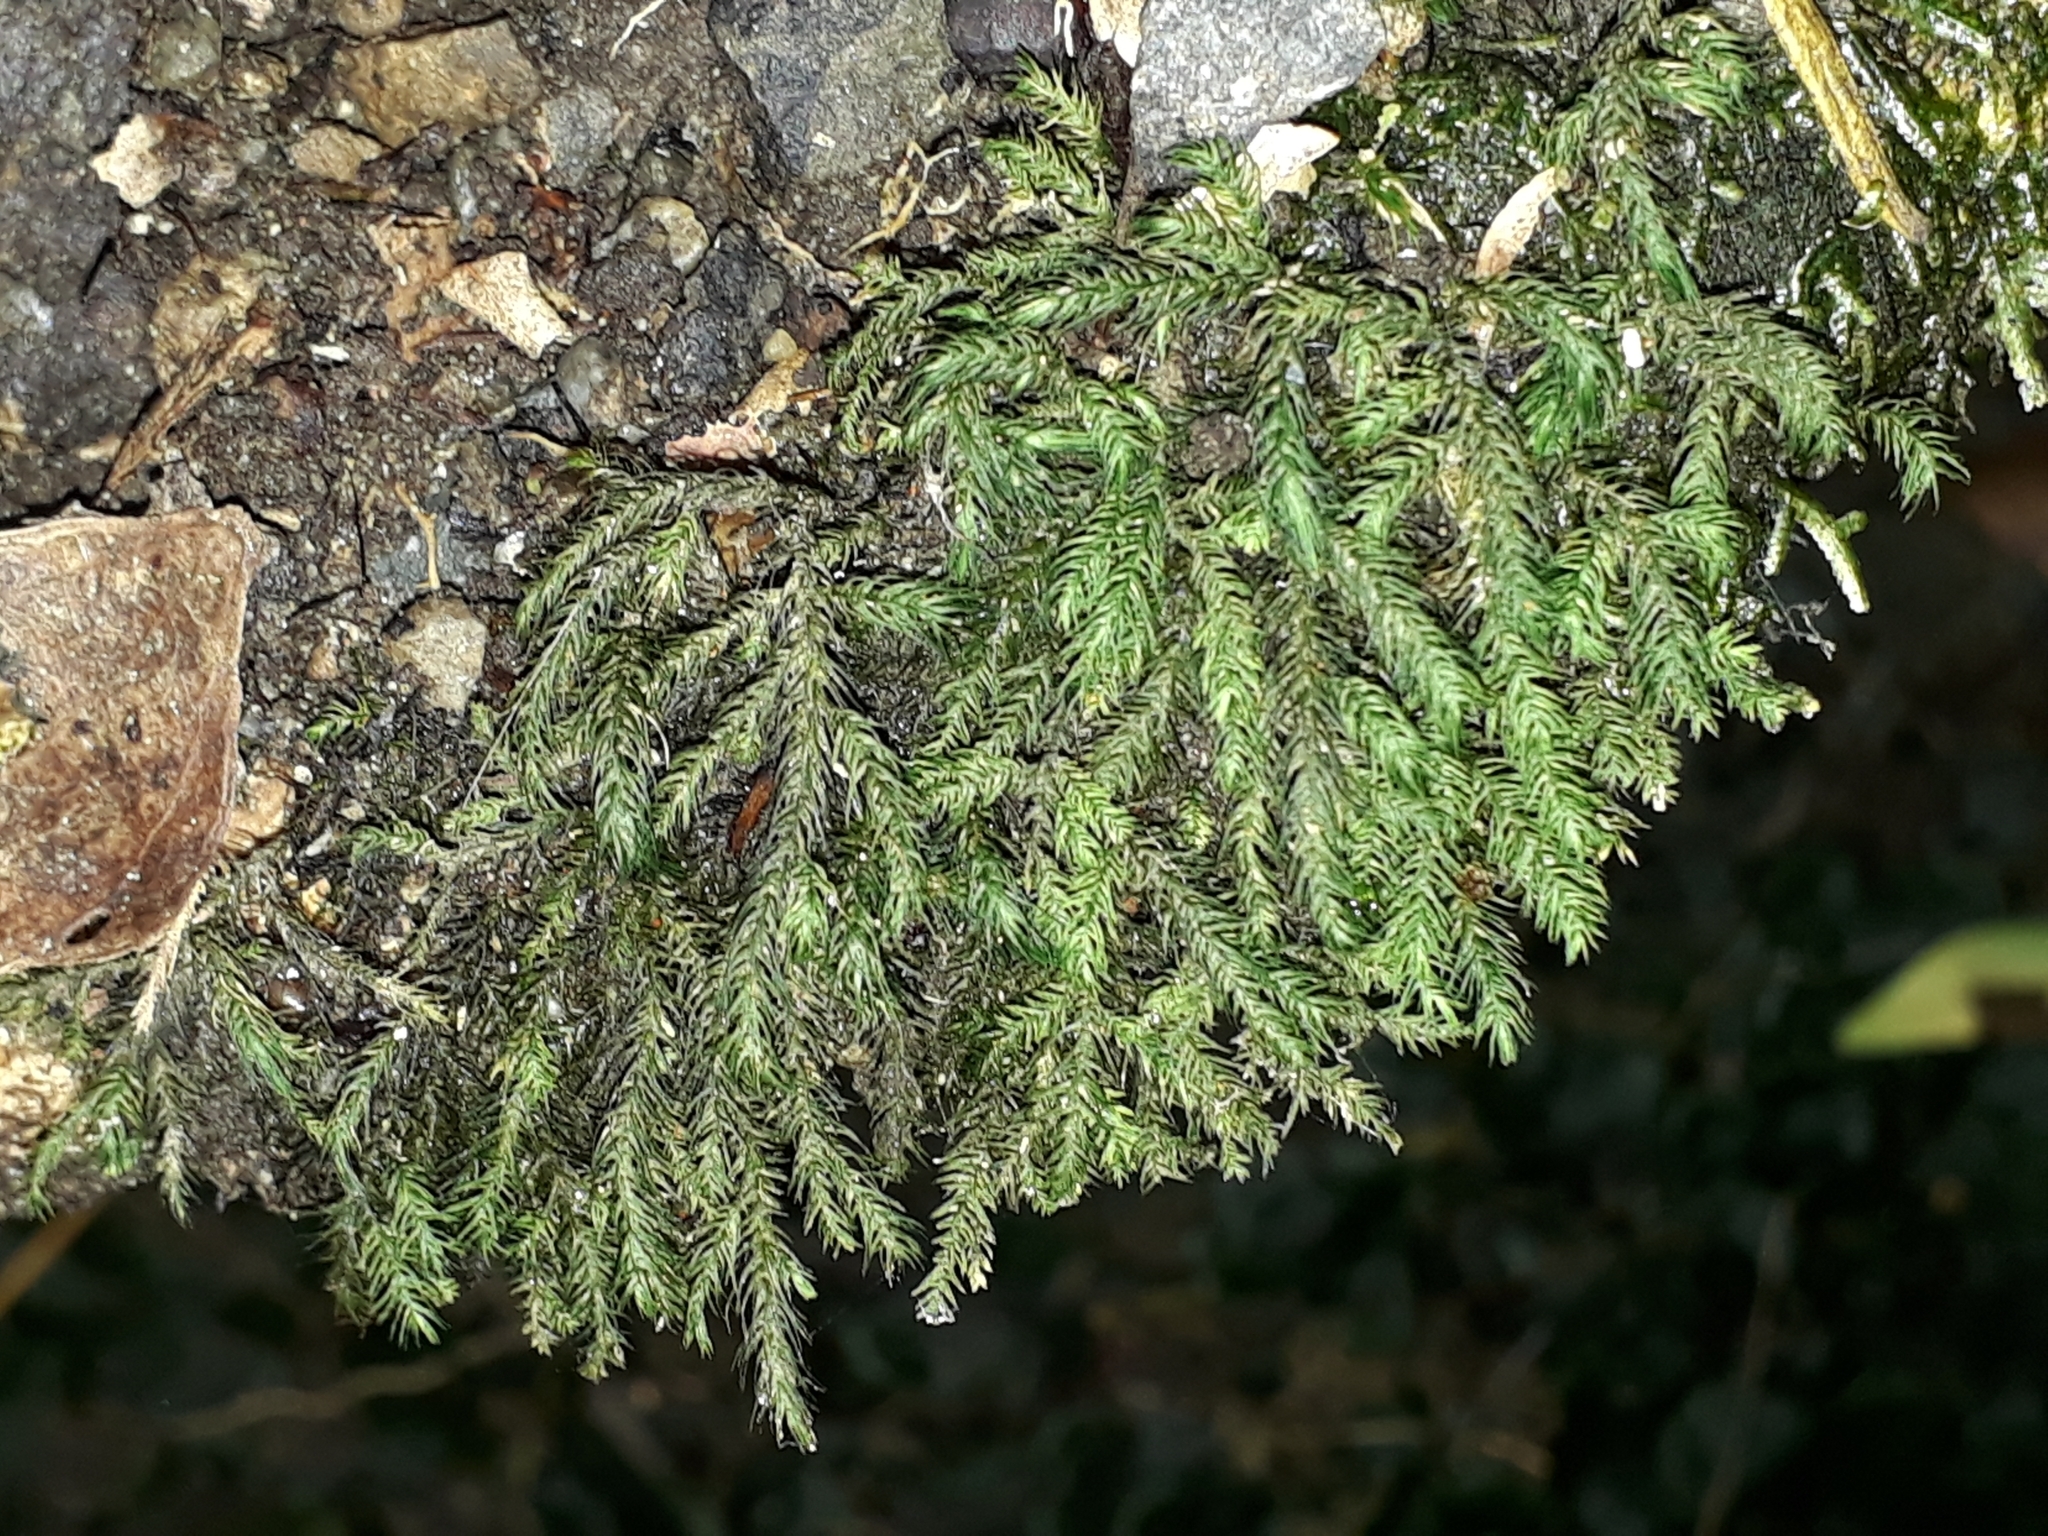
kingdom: Plantae
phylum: Bryophyta
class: Bryopsida
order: Hypnales
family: Neckeraceae
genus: Echinodiopsis
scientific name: Echinodiopsis hispida
